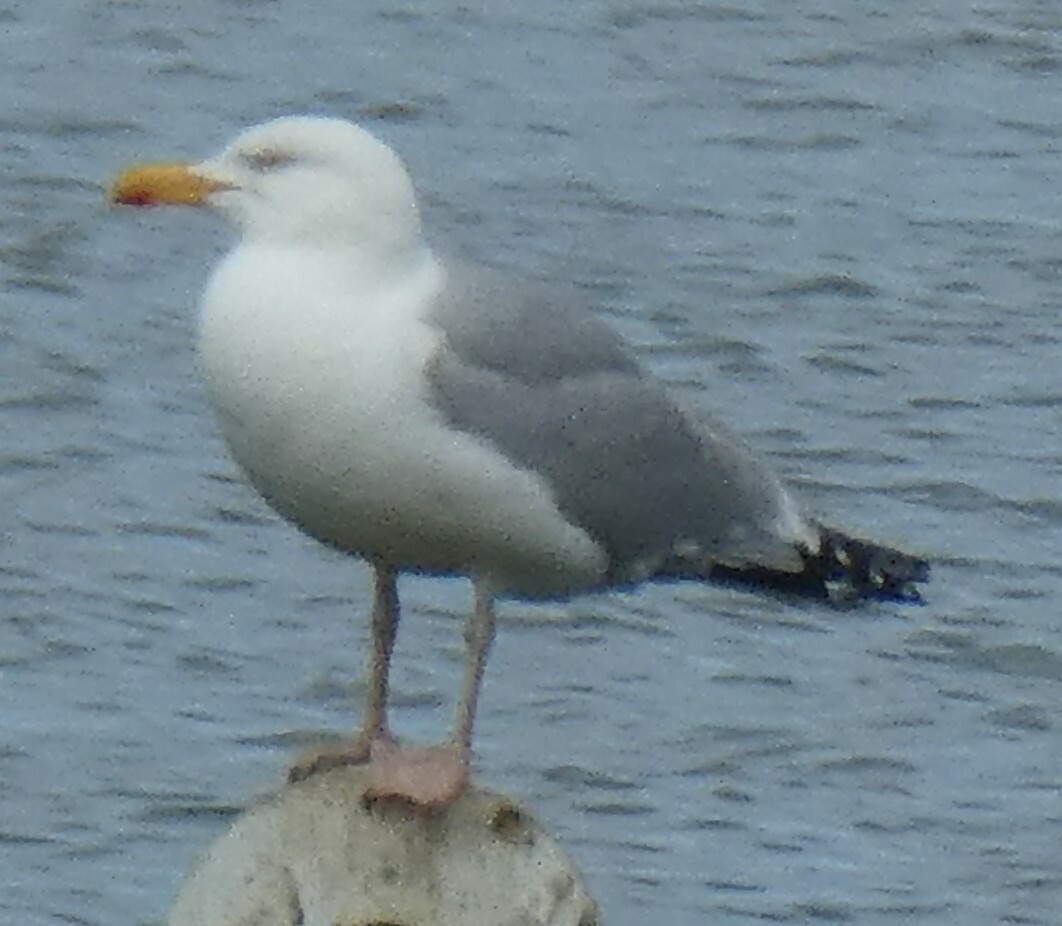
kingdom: Animalia
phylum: Chordata
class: Aves
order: Charadriiformes
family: Laridae
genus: Larus
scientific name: Larus argentatus
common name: Herring gull
